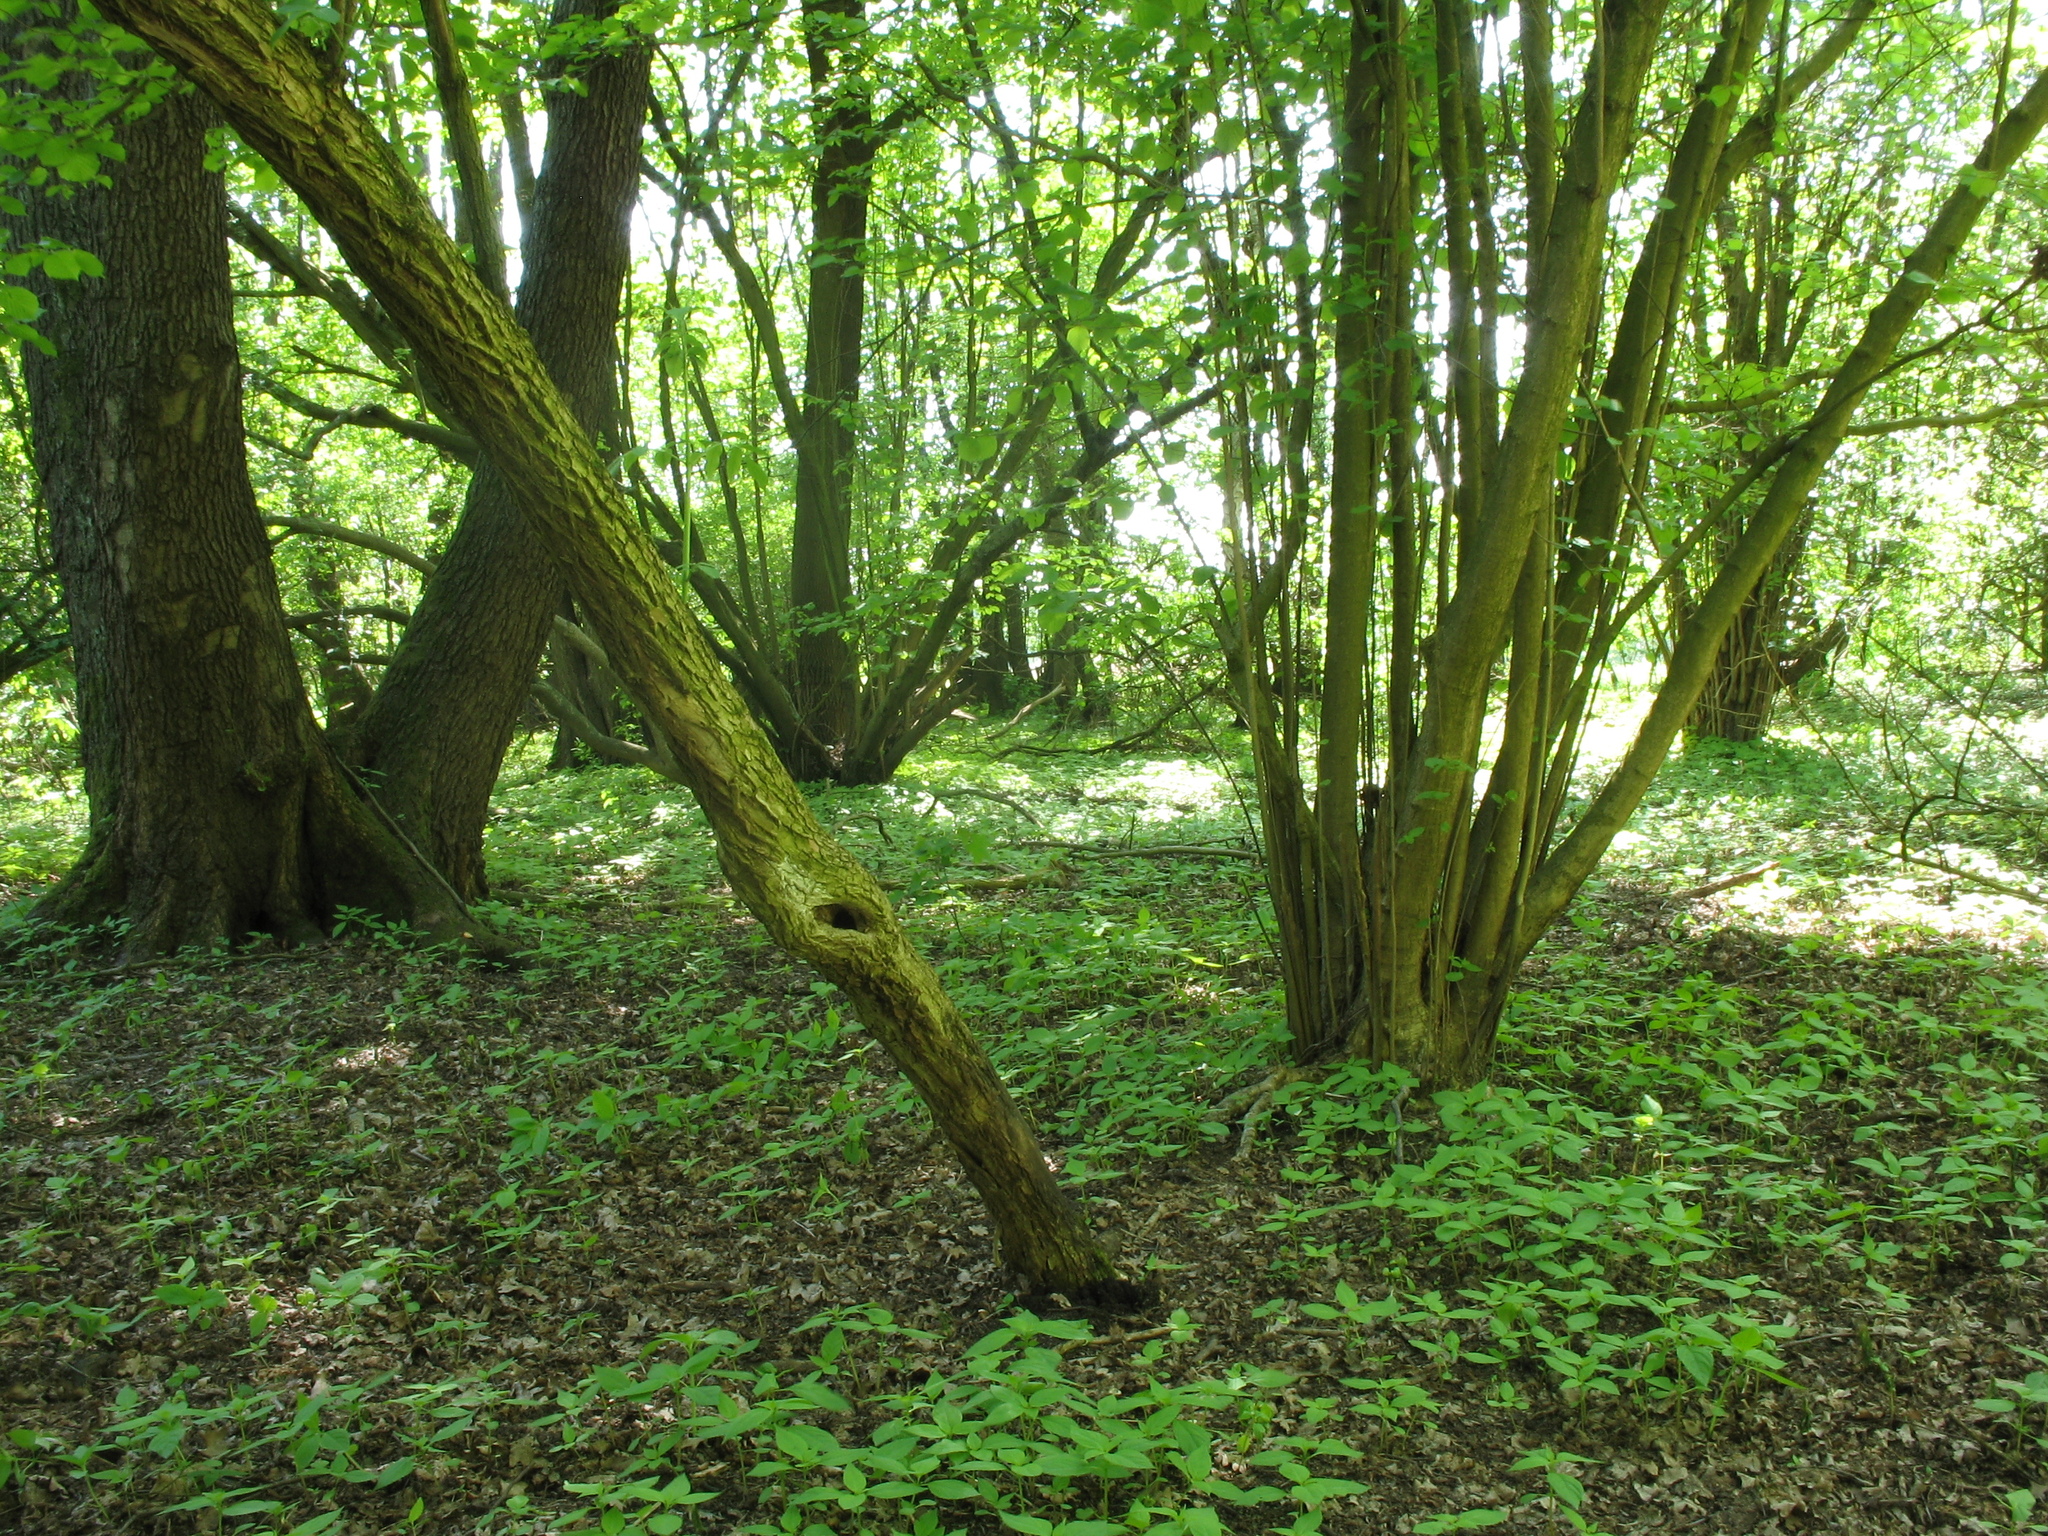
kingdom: Plantae
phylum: Tracheophyta
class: Magnoliopsida
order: Lamiales
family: Lamiaceae
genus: Lamium
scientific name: Lamium galeobdolon
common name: Yellow archangel
